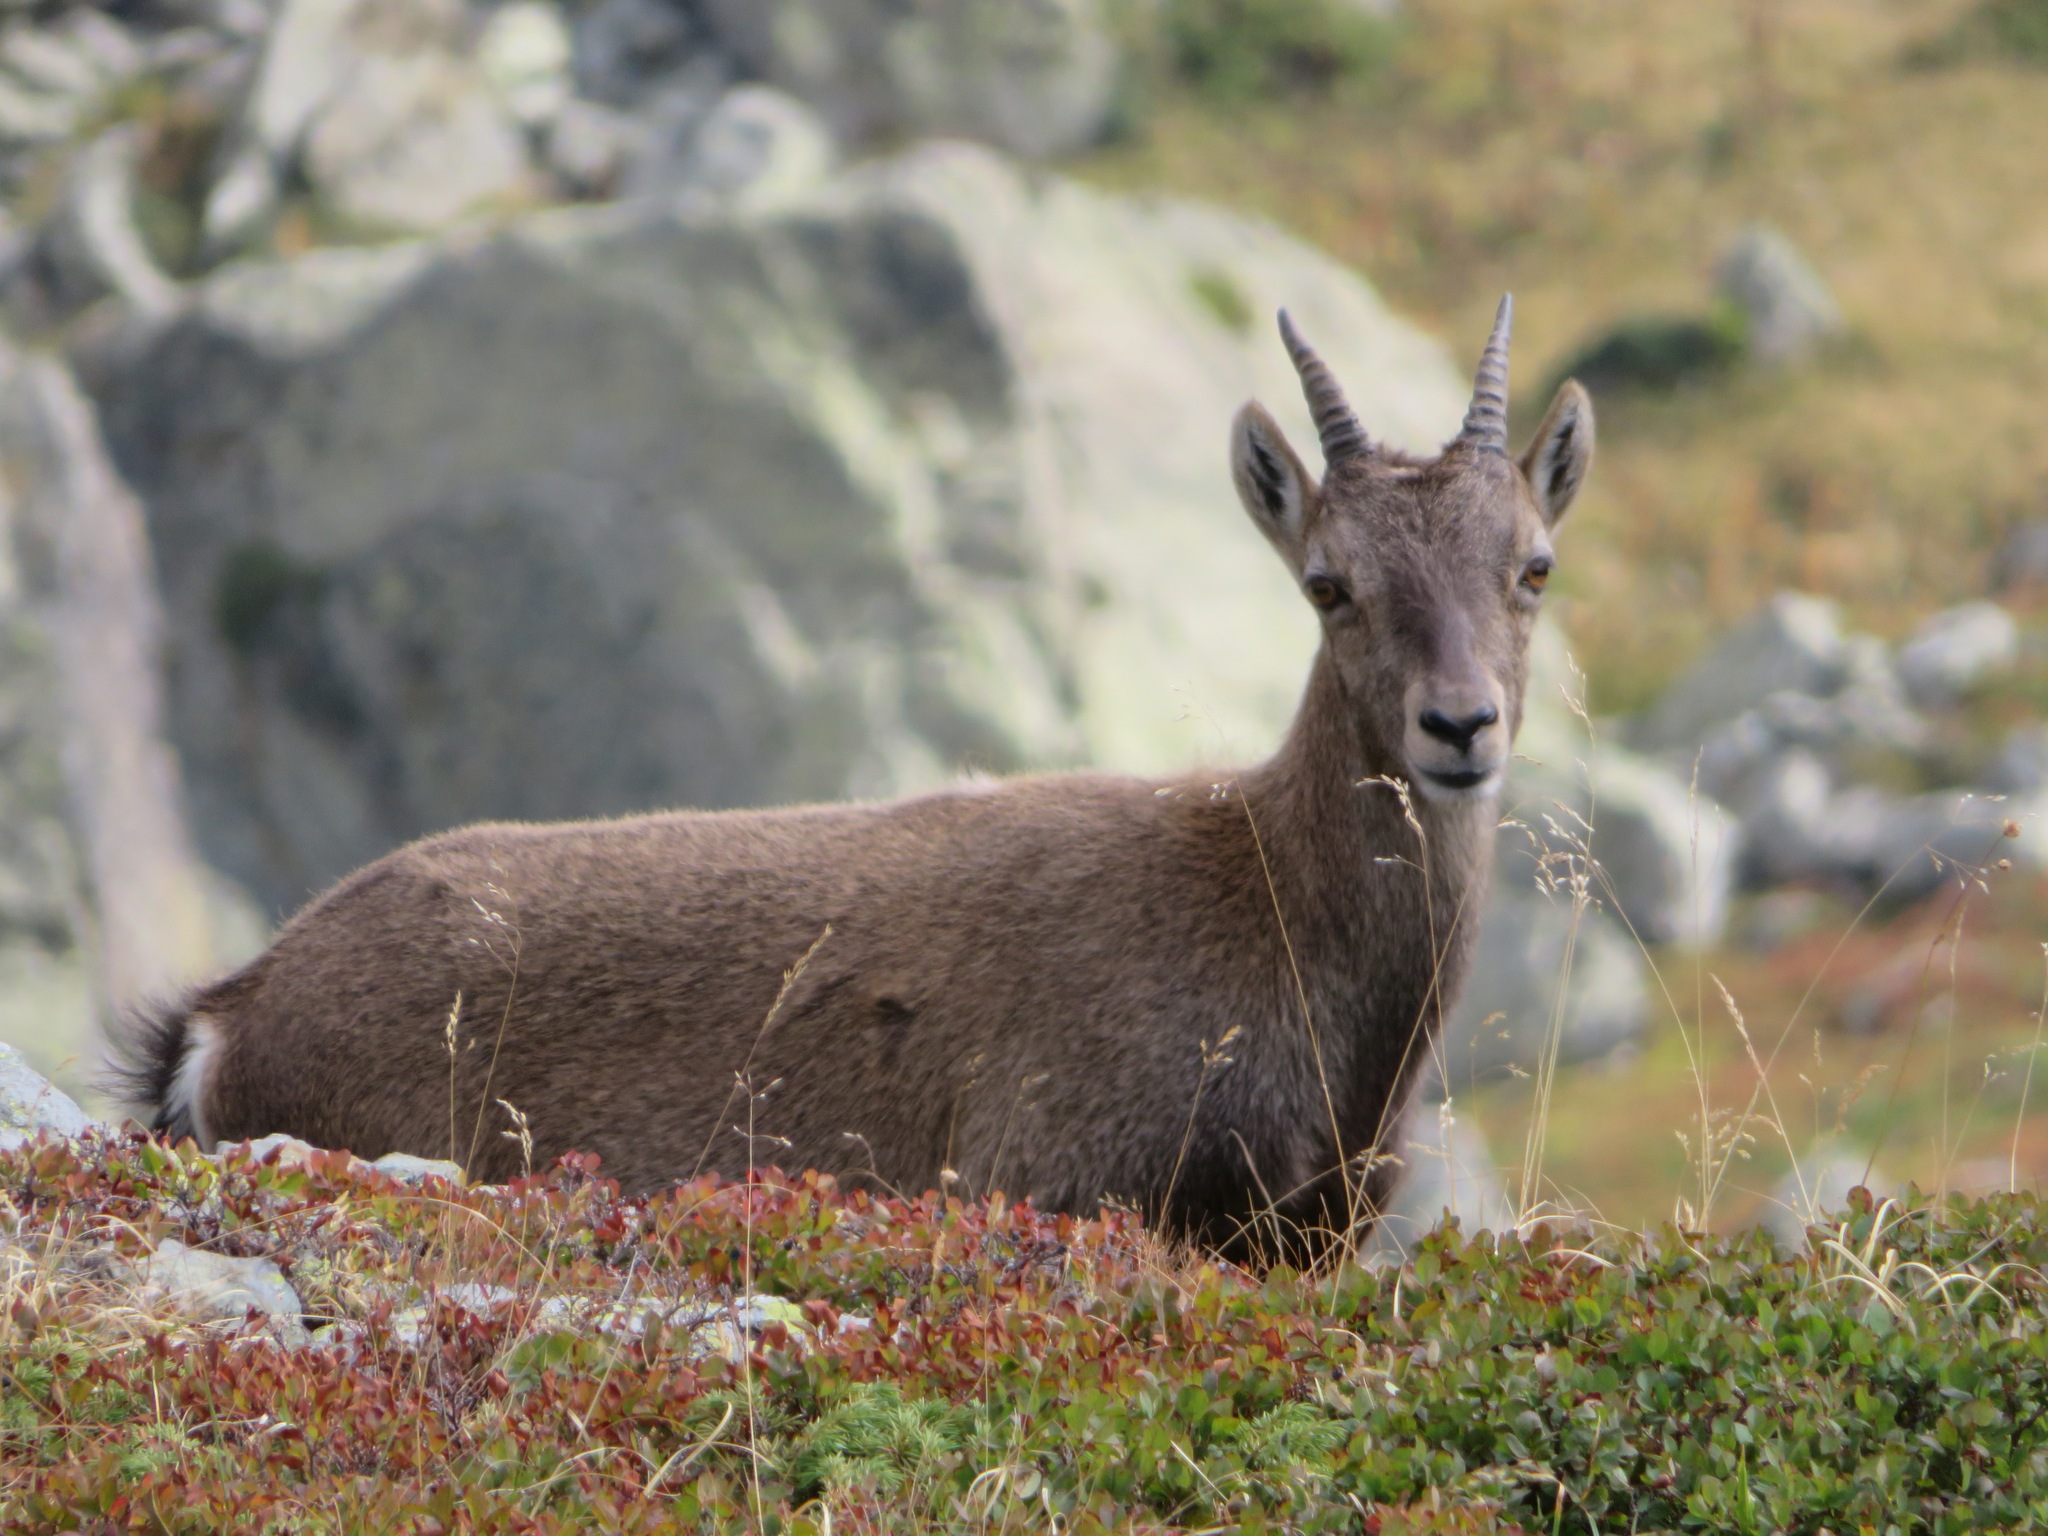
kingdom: Animalia
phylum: Chordata
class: Mammalia
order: Artiodactyla
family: Bovidae
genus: Capra
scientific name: Capra ibex
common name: Alpine ibex
